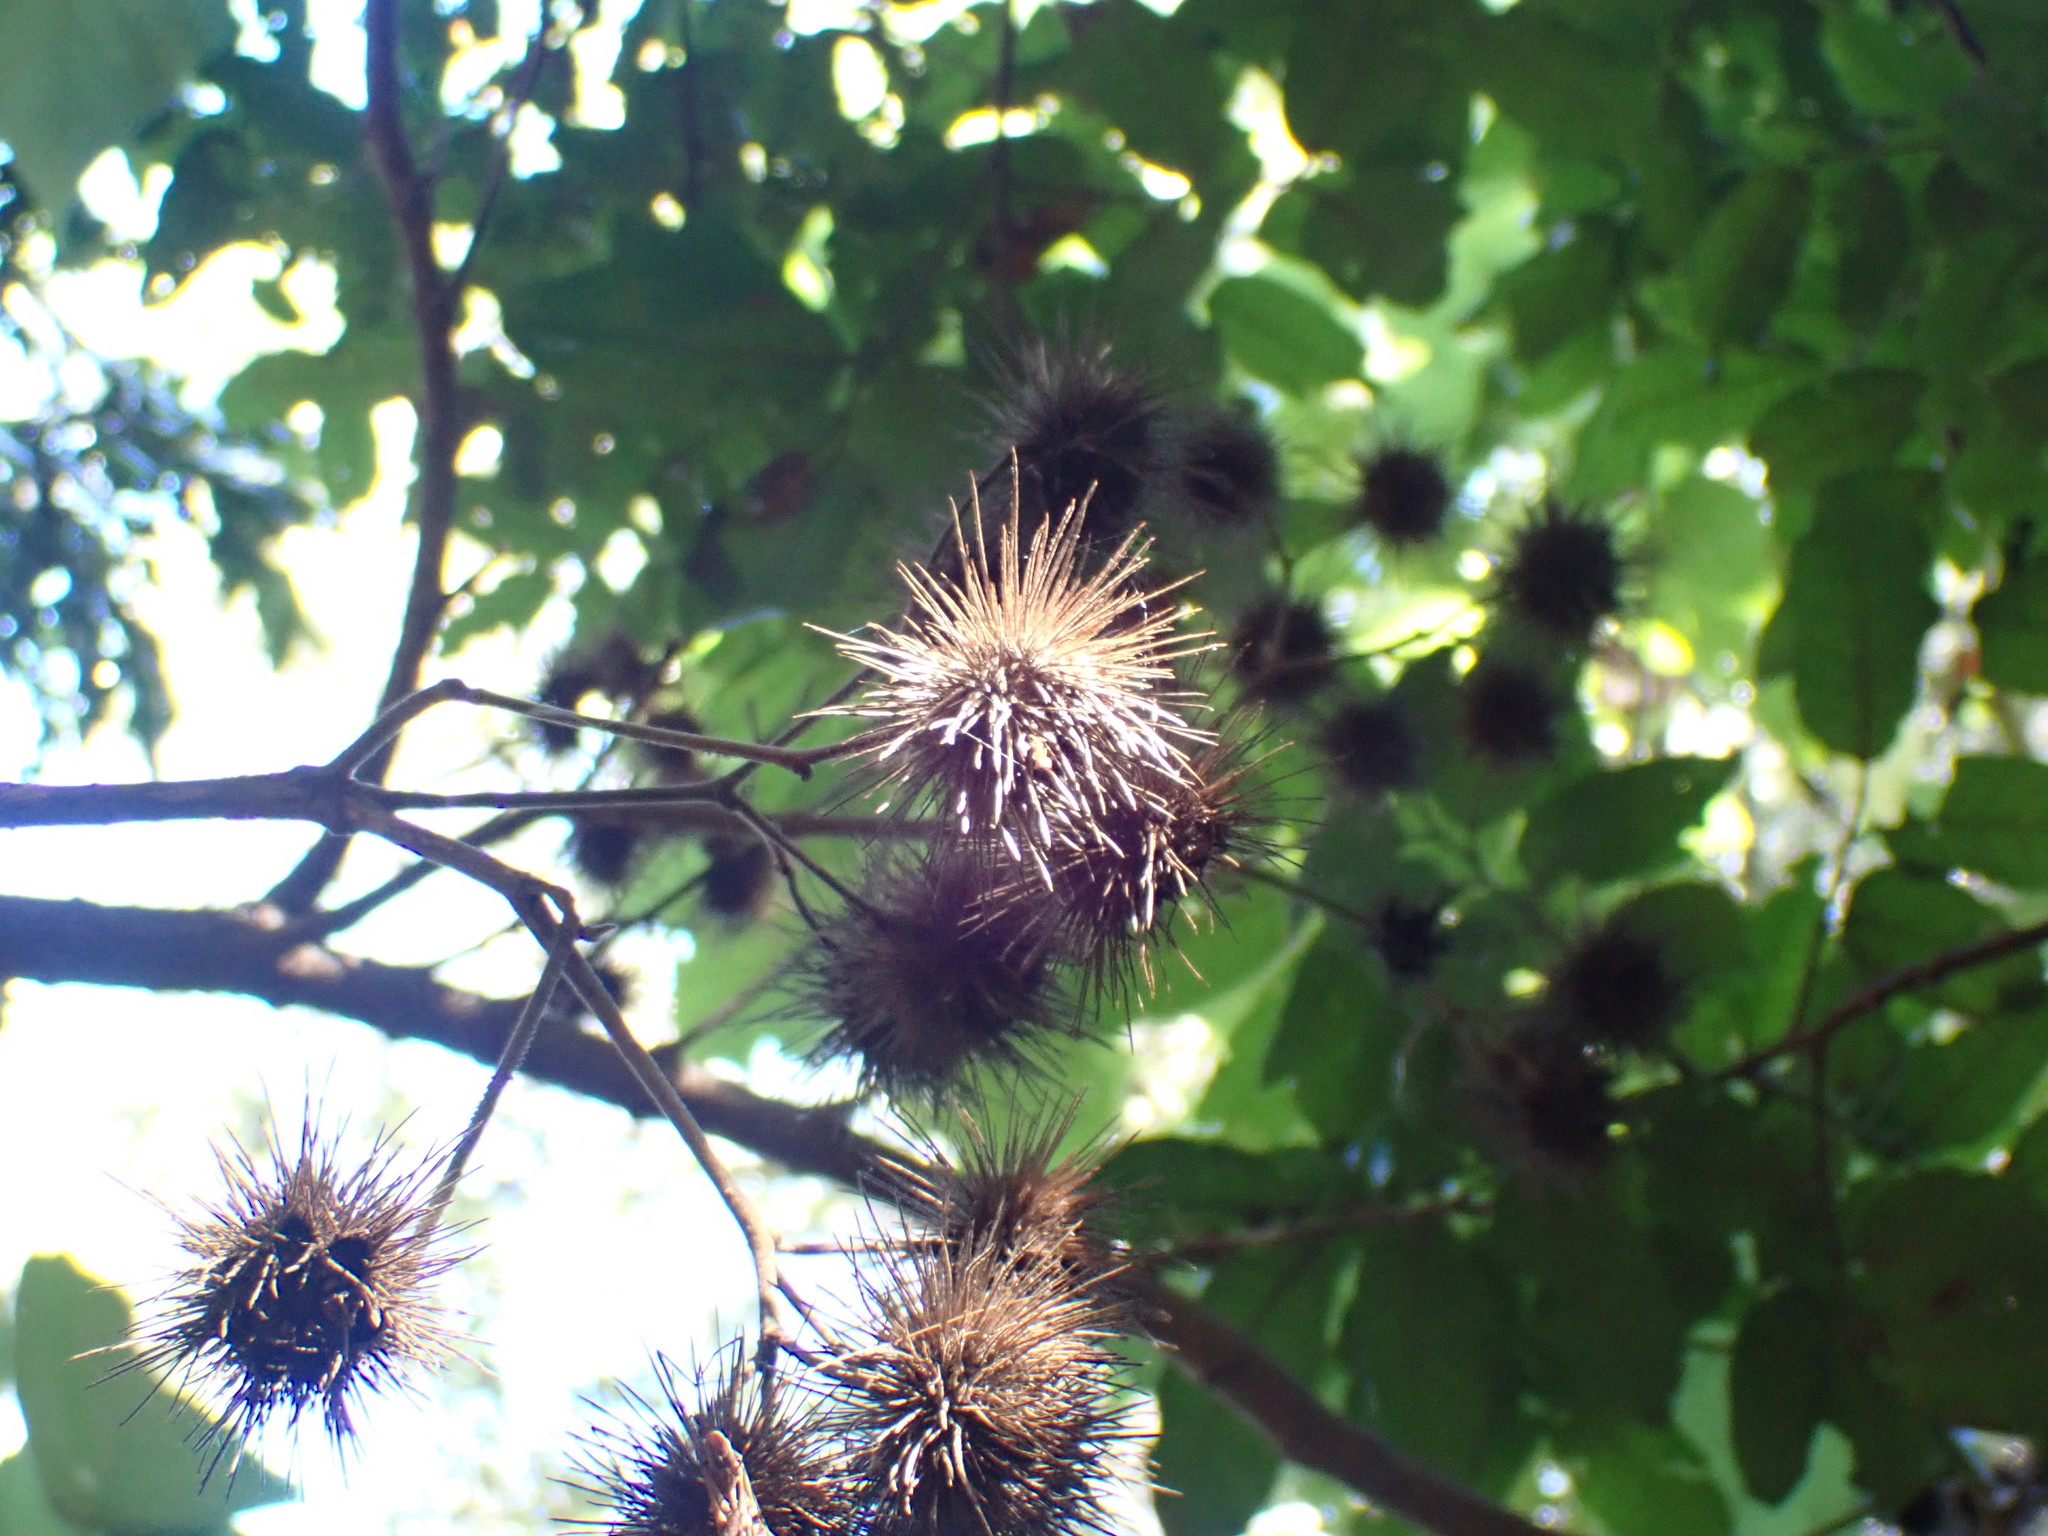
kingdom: Plantae
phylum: Tracheophyta
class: Magnoliopsida
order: Malvales
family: Malvaceae
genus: Entelea
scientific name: Entelea arborescens
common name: New zealand-mulberry
